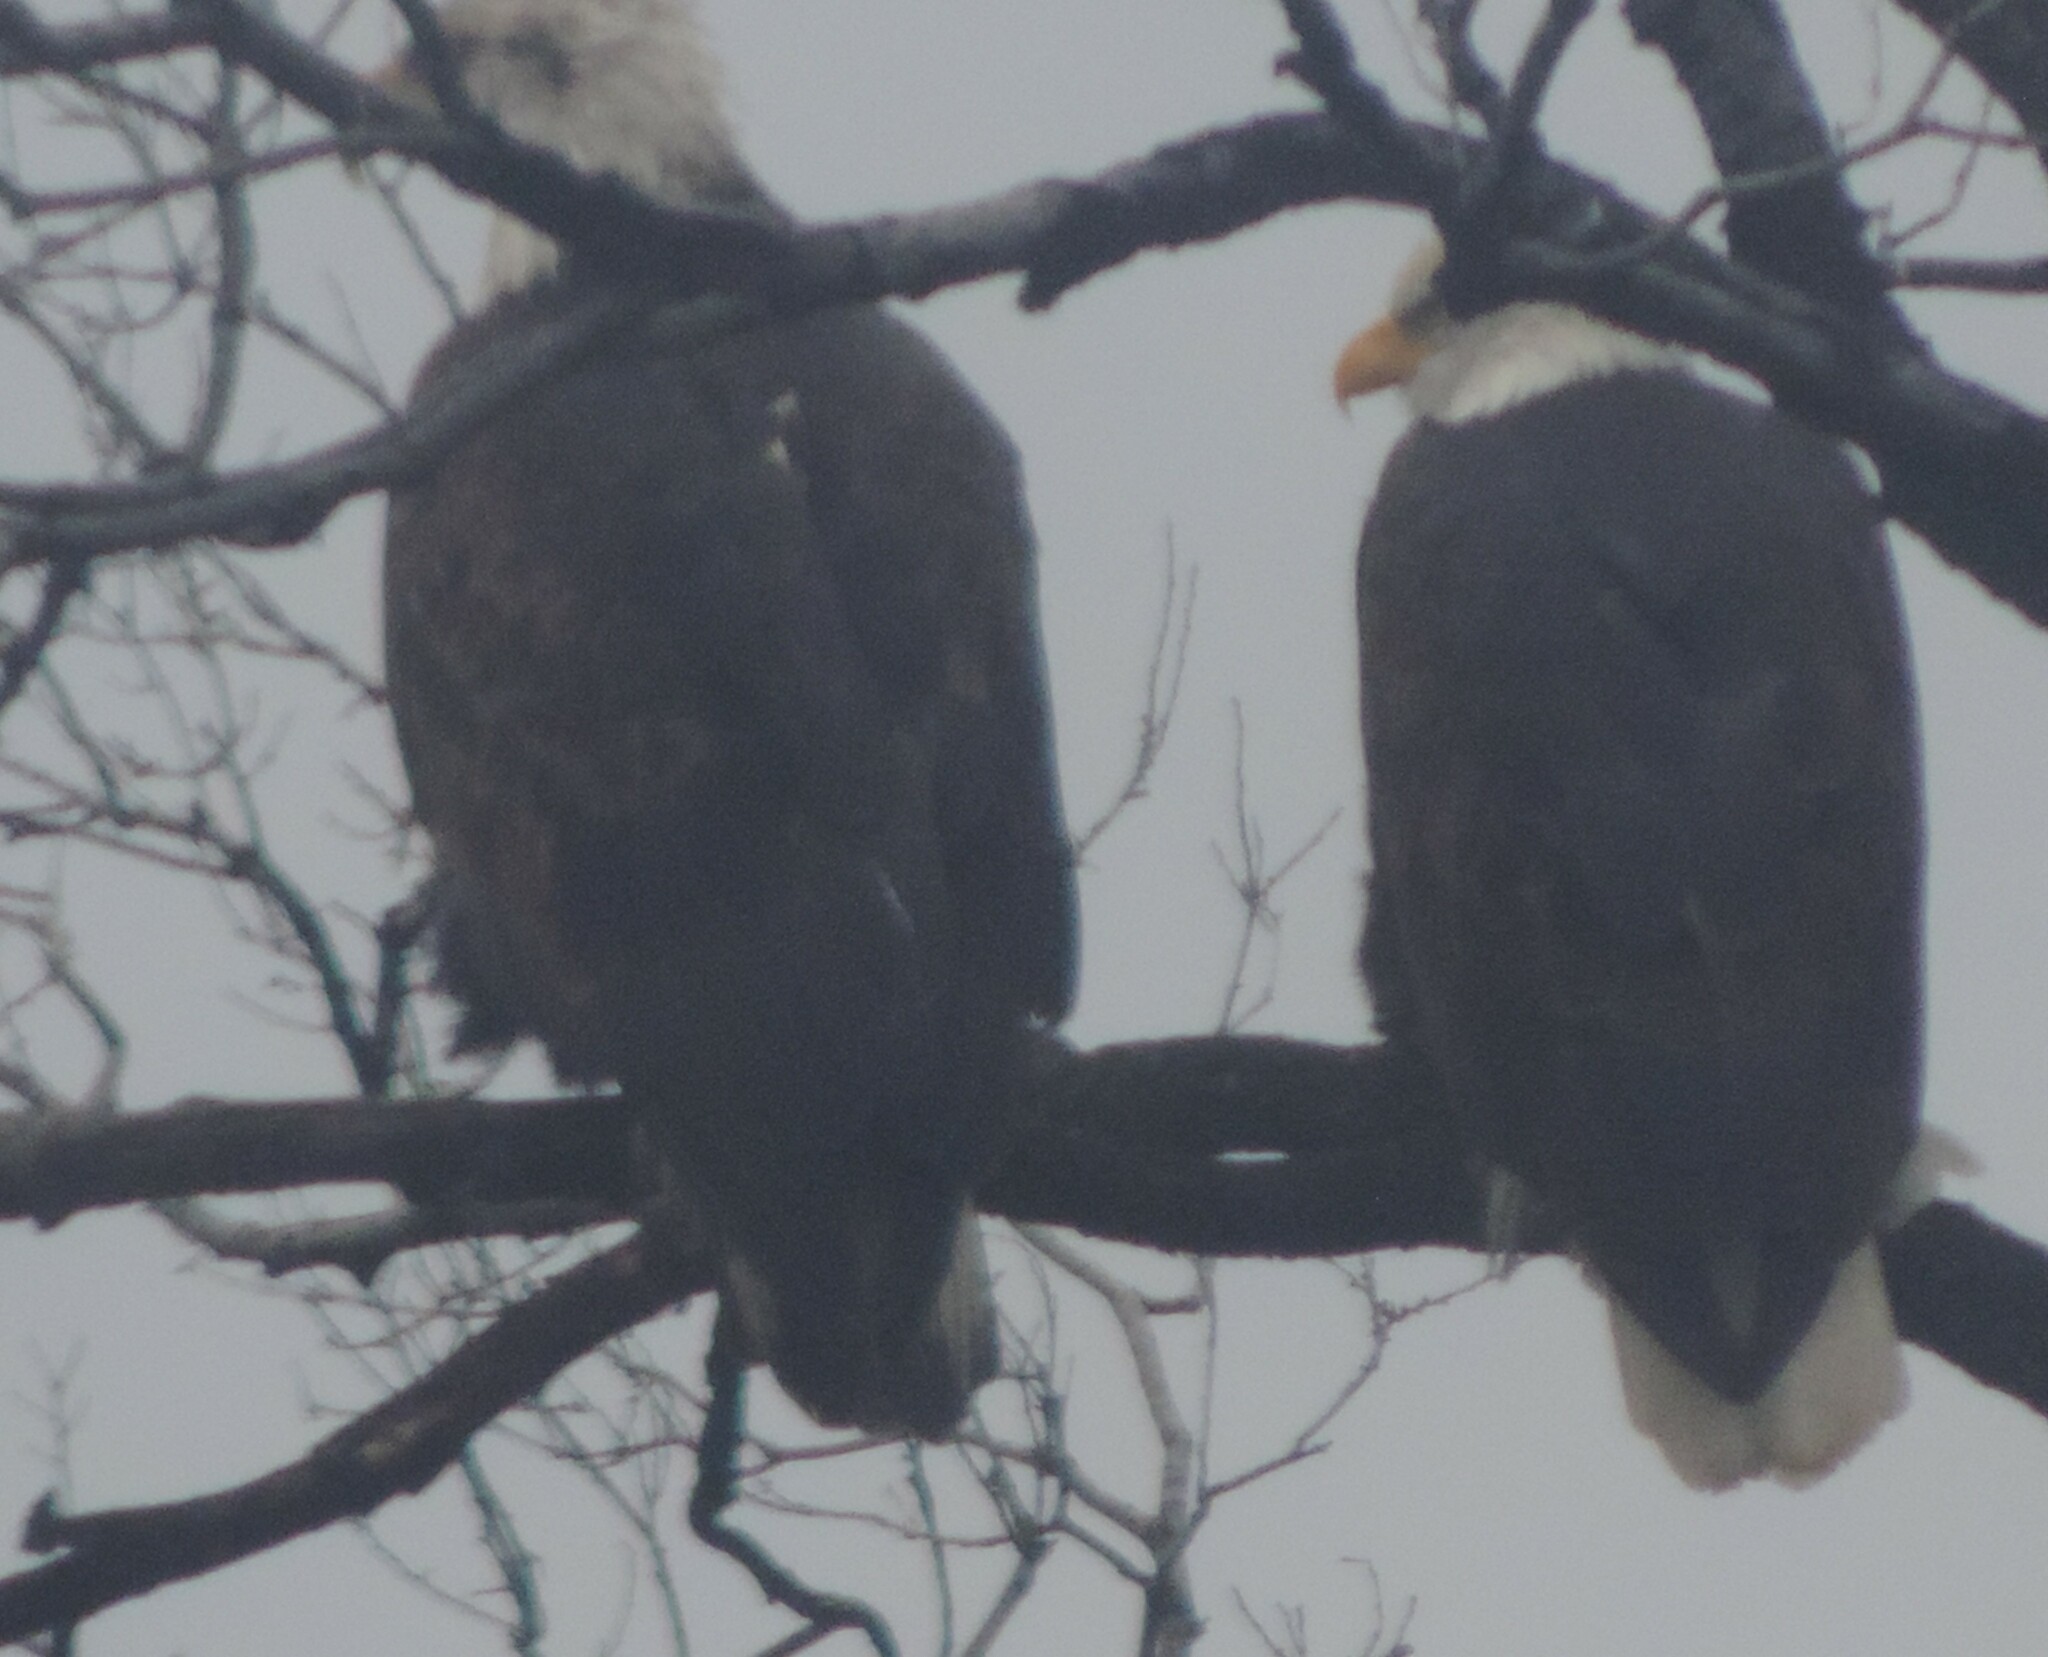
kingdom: Animalia
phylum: Chordata
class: Aves
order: Accipitriformes
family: Accipitridae
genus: Haliaeetus
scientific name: Haliaeetus leucocephalus
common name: Bald eagle
